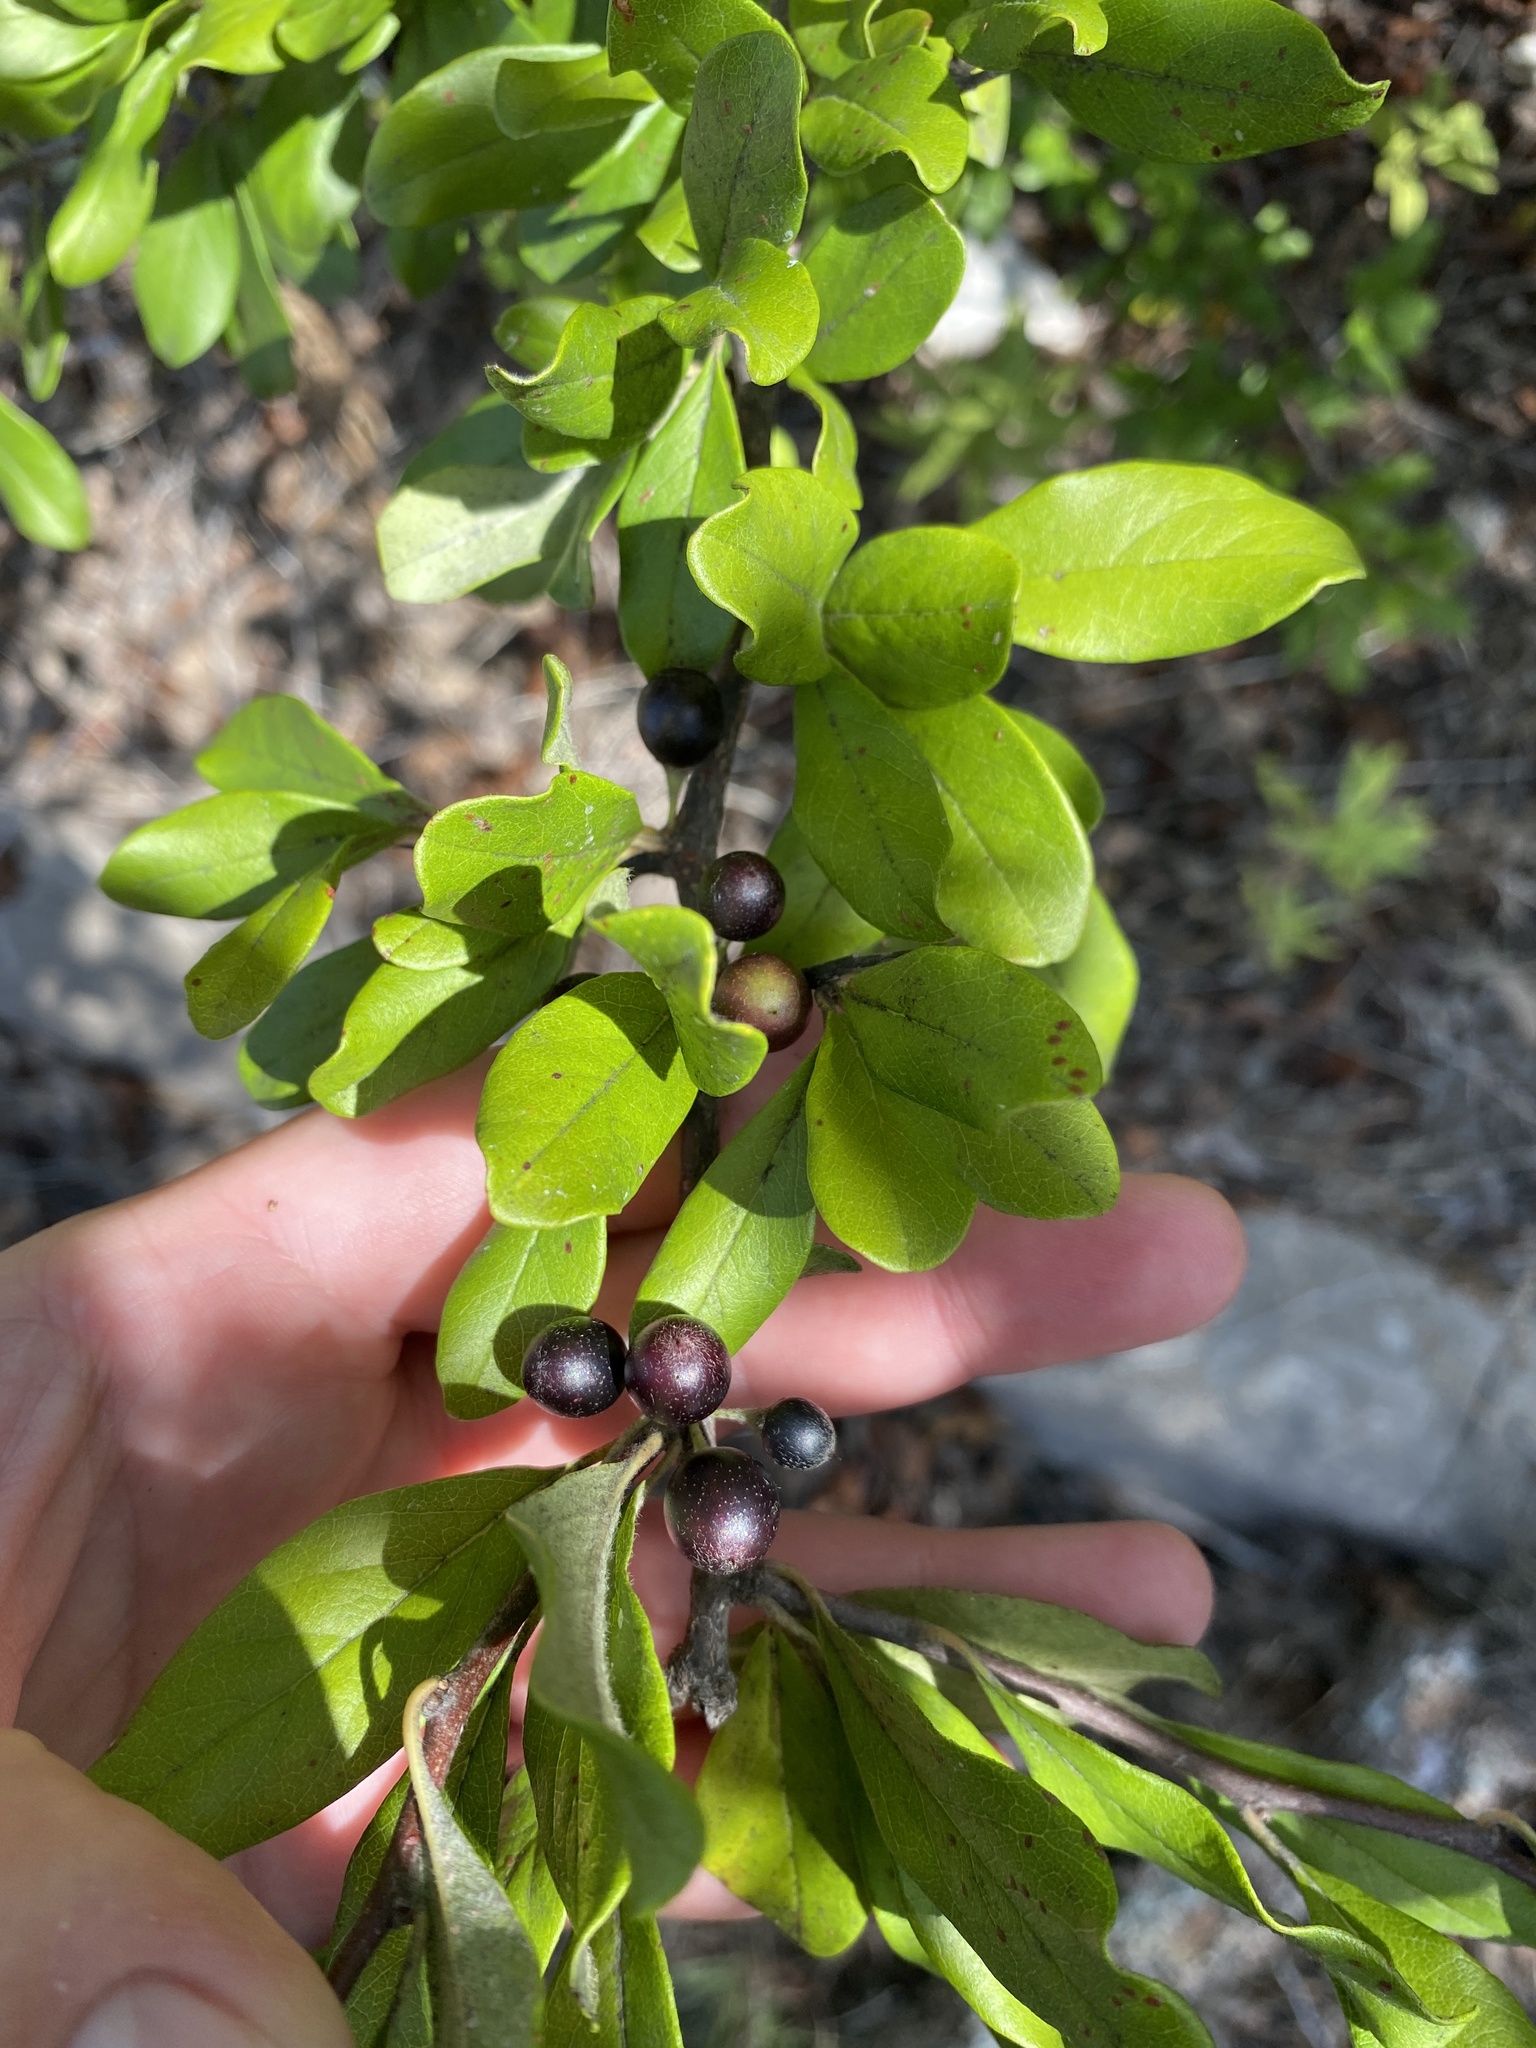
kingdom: Plantae
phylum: Tracheophyta
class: Magnoliopsida
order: Ericales
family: Sapotaceae
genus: Sideroxylon
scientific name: Sideroxylon lanuginosum
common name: Chittamwood
